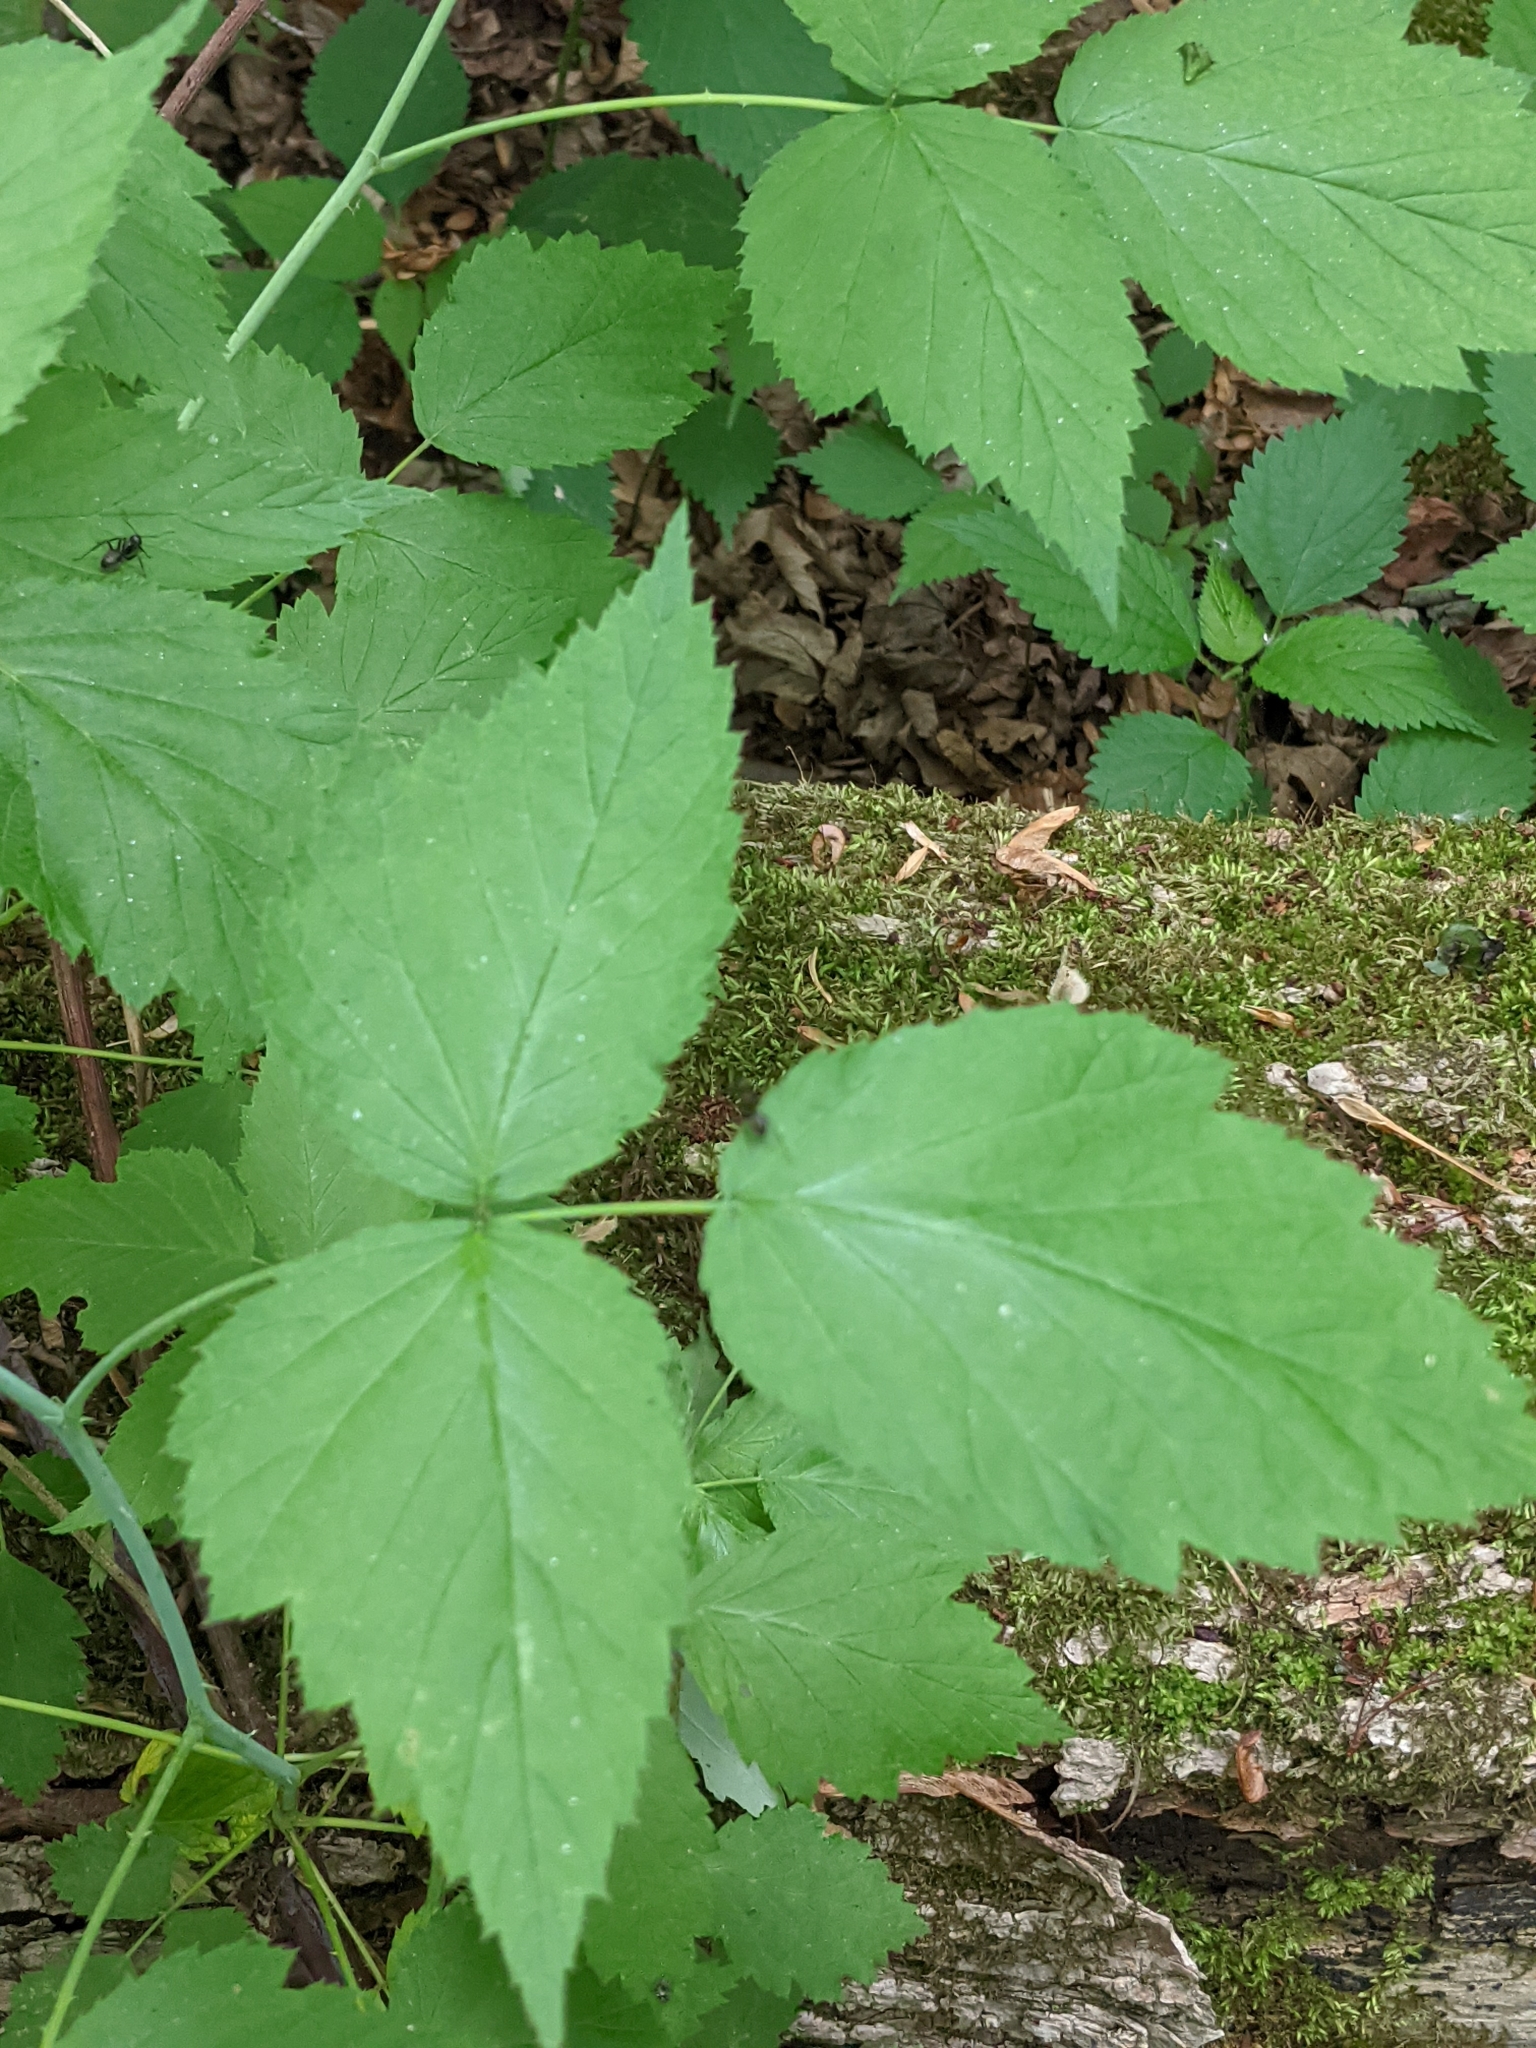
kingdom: Plantae
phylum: Tracheophyta
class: Magnoliopsida
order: Rosales
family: Rosaceae
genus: Rubus
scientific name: Rubus occidentalis
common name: Black raspberry
